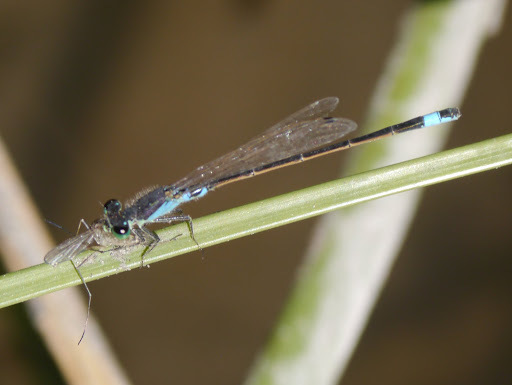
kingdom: Animalia
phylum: Arthropoda
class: Insecta
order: Odonata
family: Coenagrionidae
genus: Ischnura
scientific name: Ischnura senegalensis
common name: Tropical bluetail
